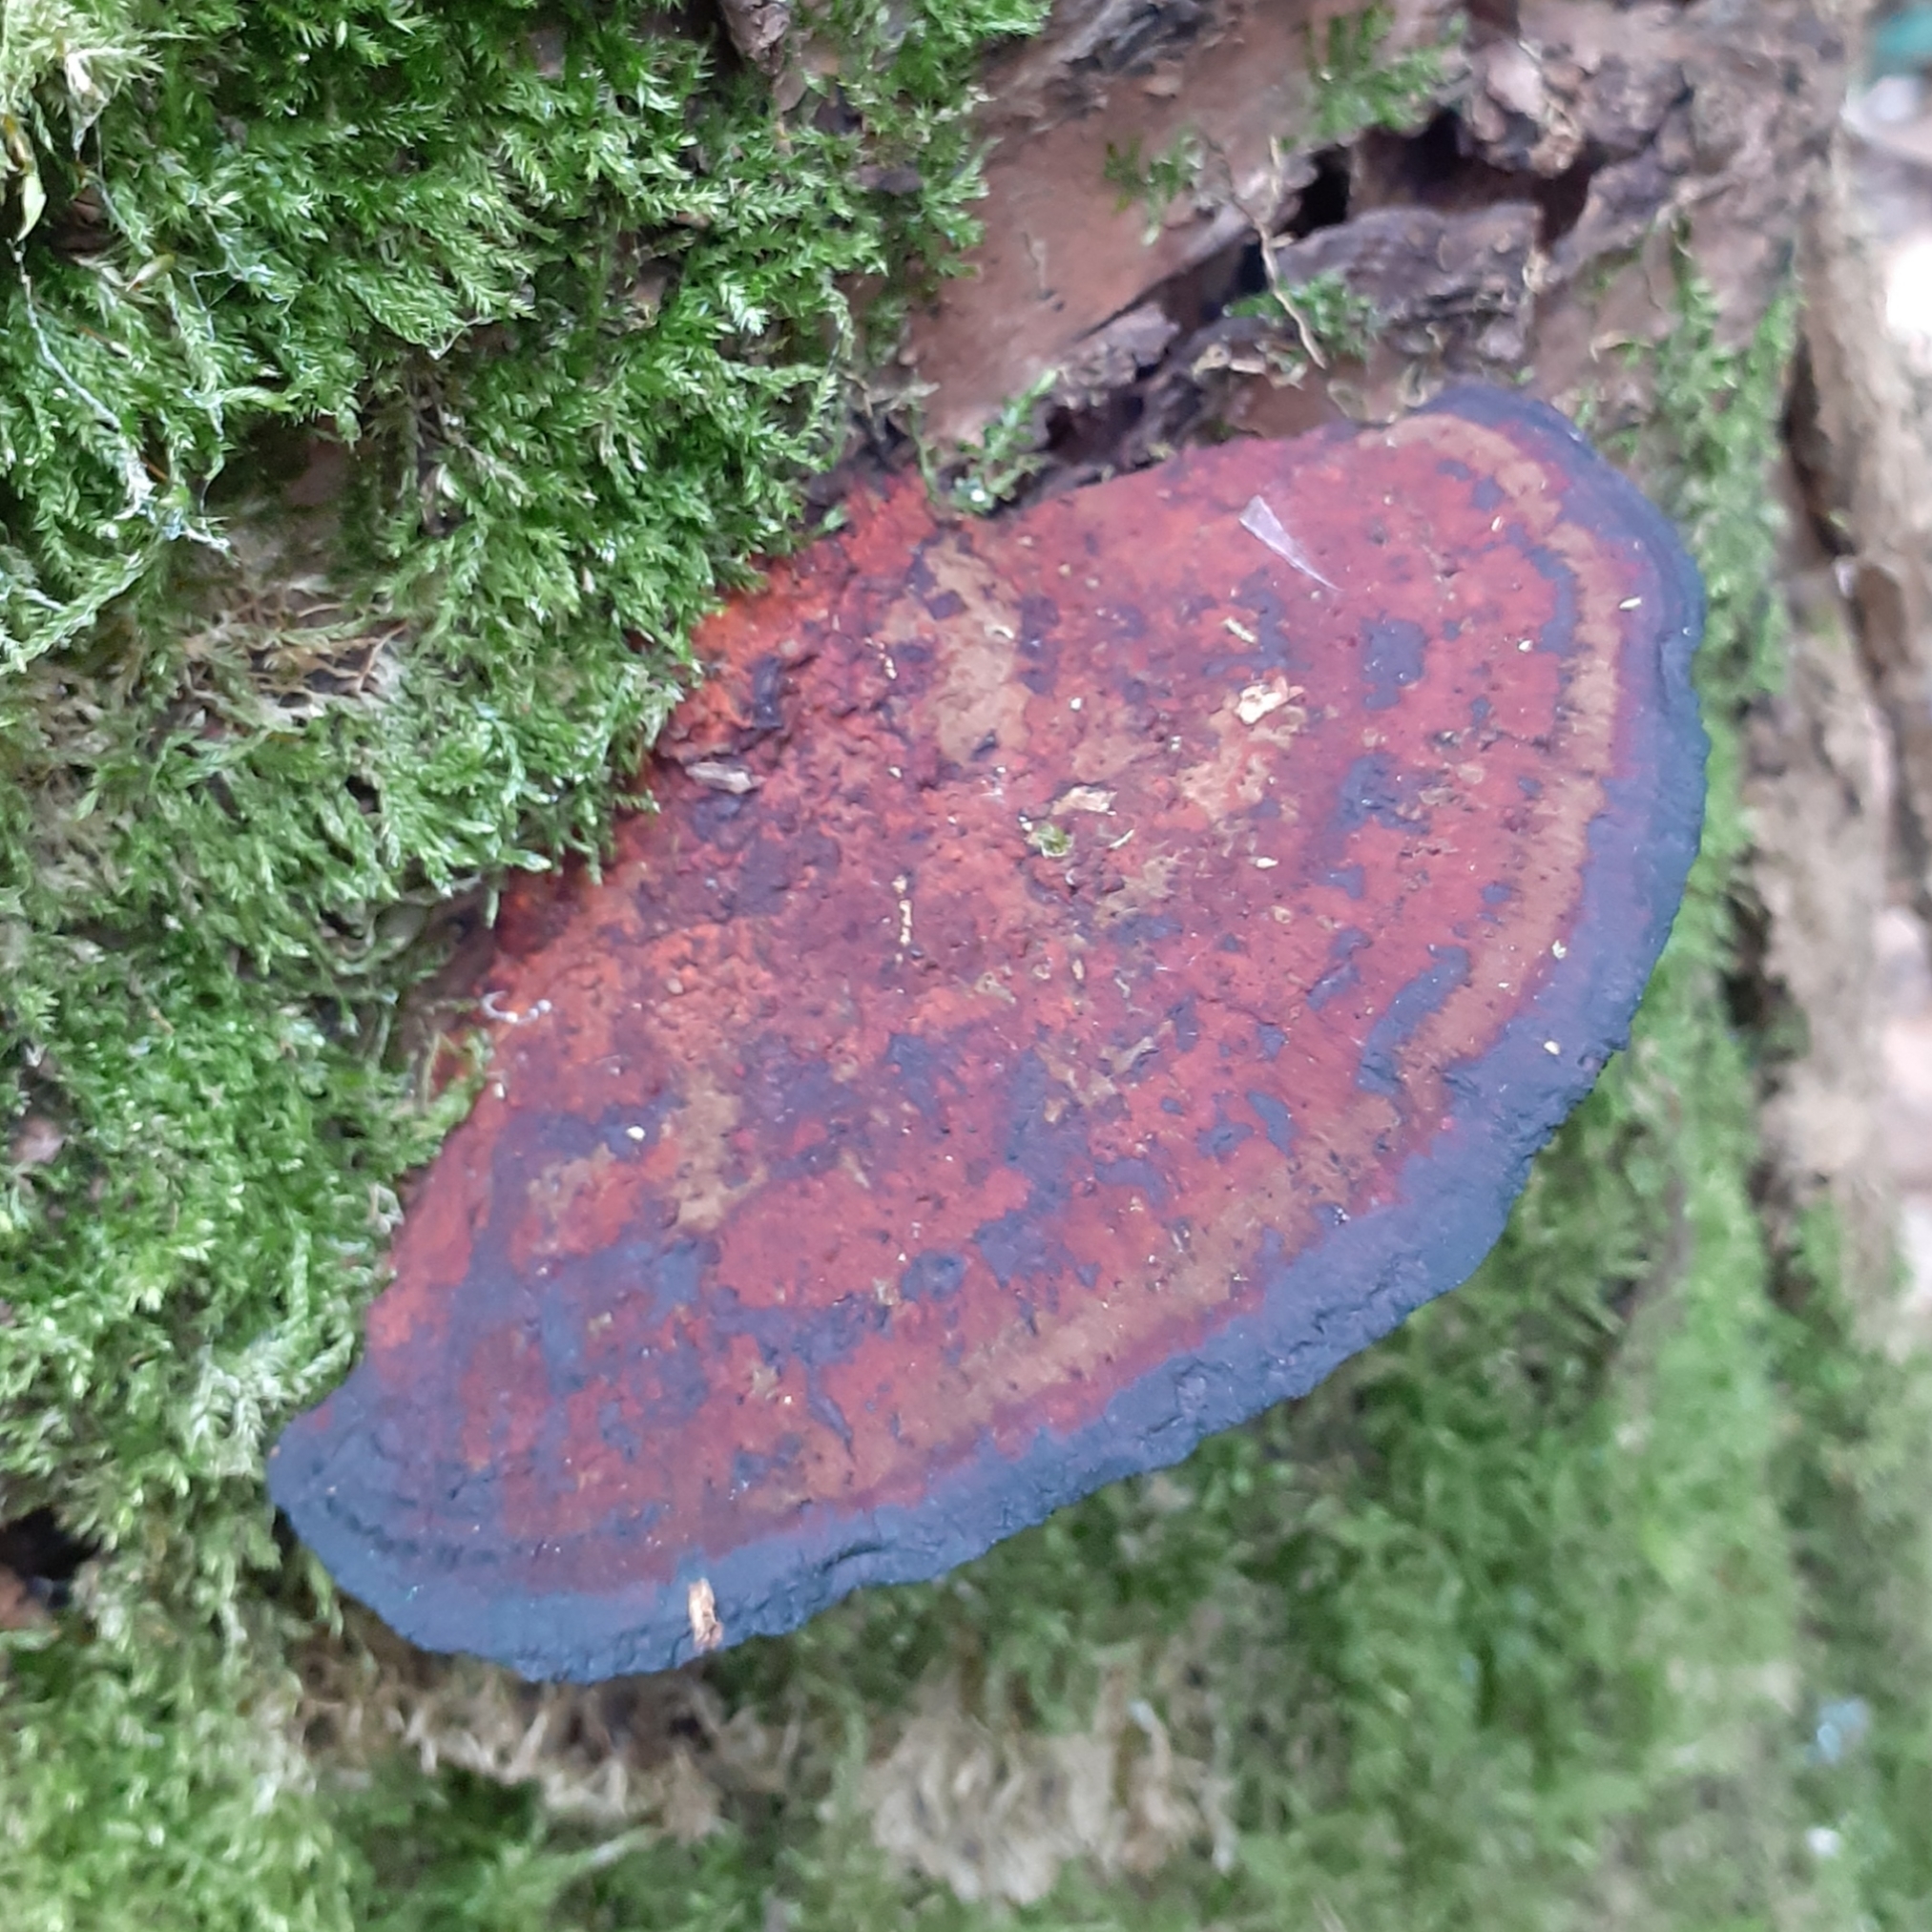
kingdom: Fungi
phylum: Basidiomycota
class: Agaricomycetes
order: Polyporales
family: Polyporaceae
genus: Daedaleopsis
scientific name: Daedaleopsis tricolor
